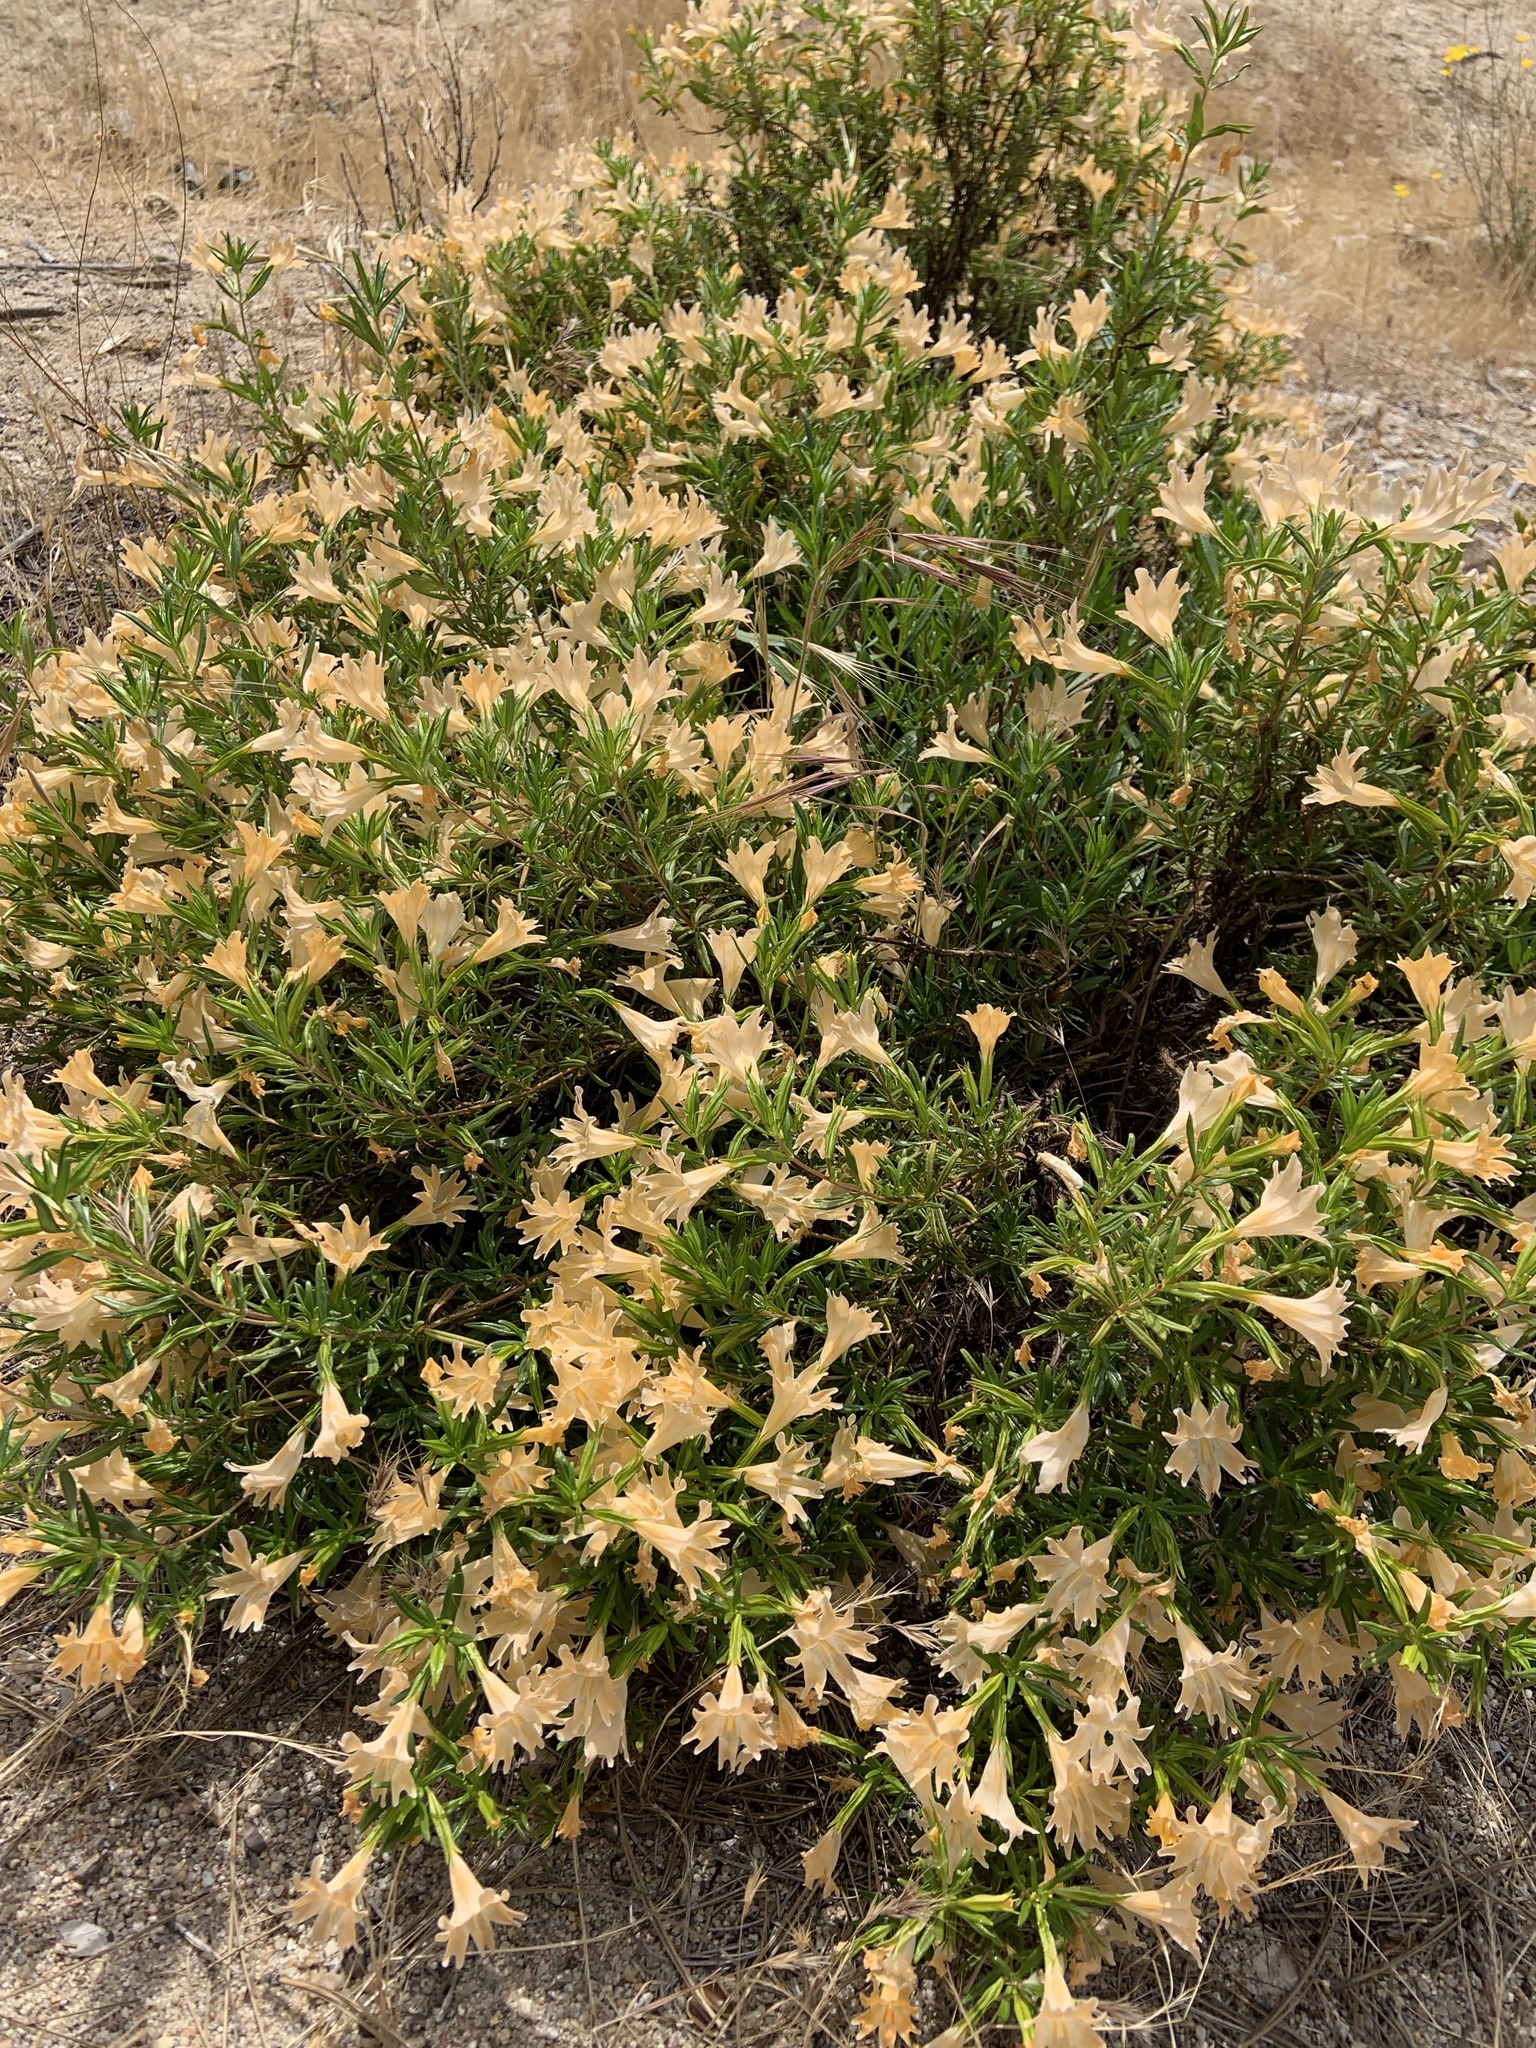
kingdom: Plantae
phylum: Tracheophyta
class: Magnoliopsida
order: Lamiales
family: Phrymaceae
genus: Diplacus
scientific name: Diplacus linearis
